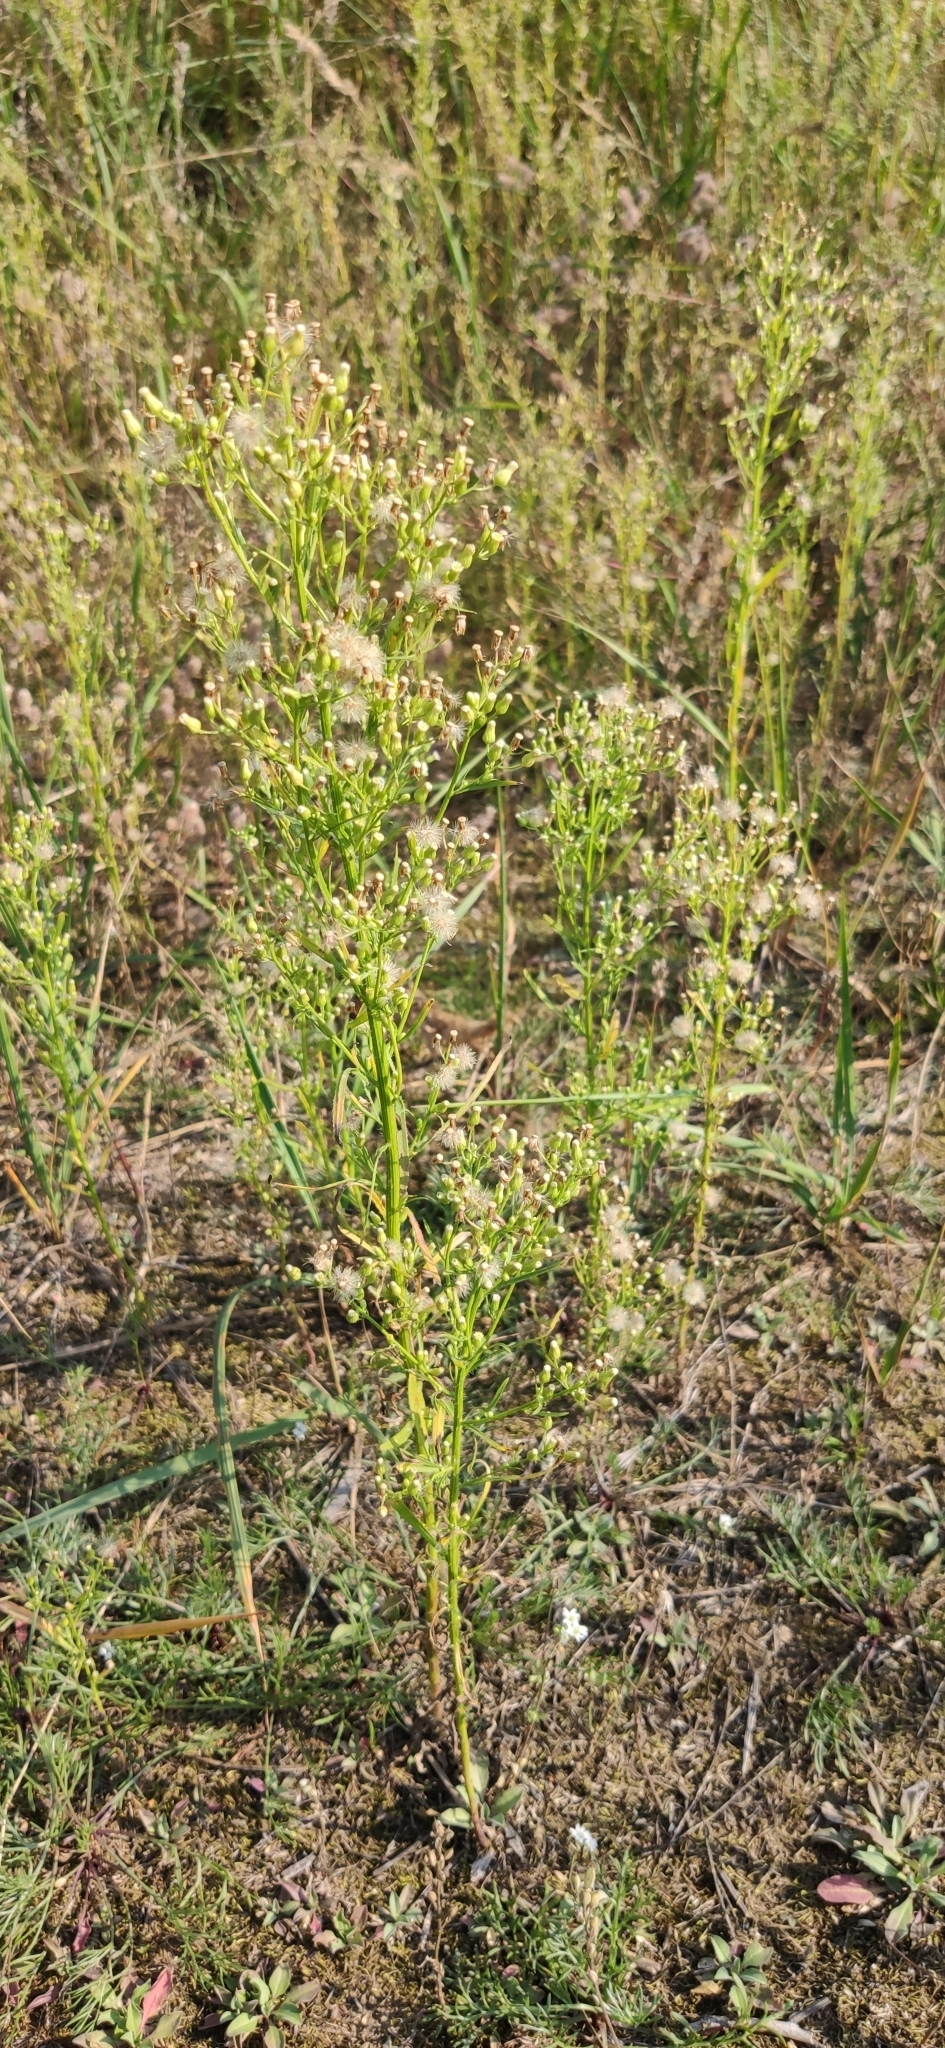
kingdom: Plantae
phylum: Tracheophyta
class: Magnoliopsida
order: Asterales
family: Asteraceae
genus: Erigeron
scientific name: Erigeron canadensis
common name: Canadian fleabane
